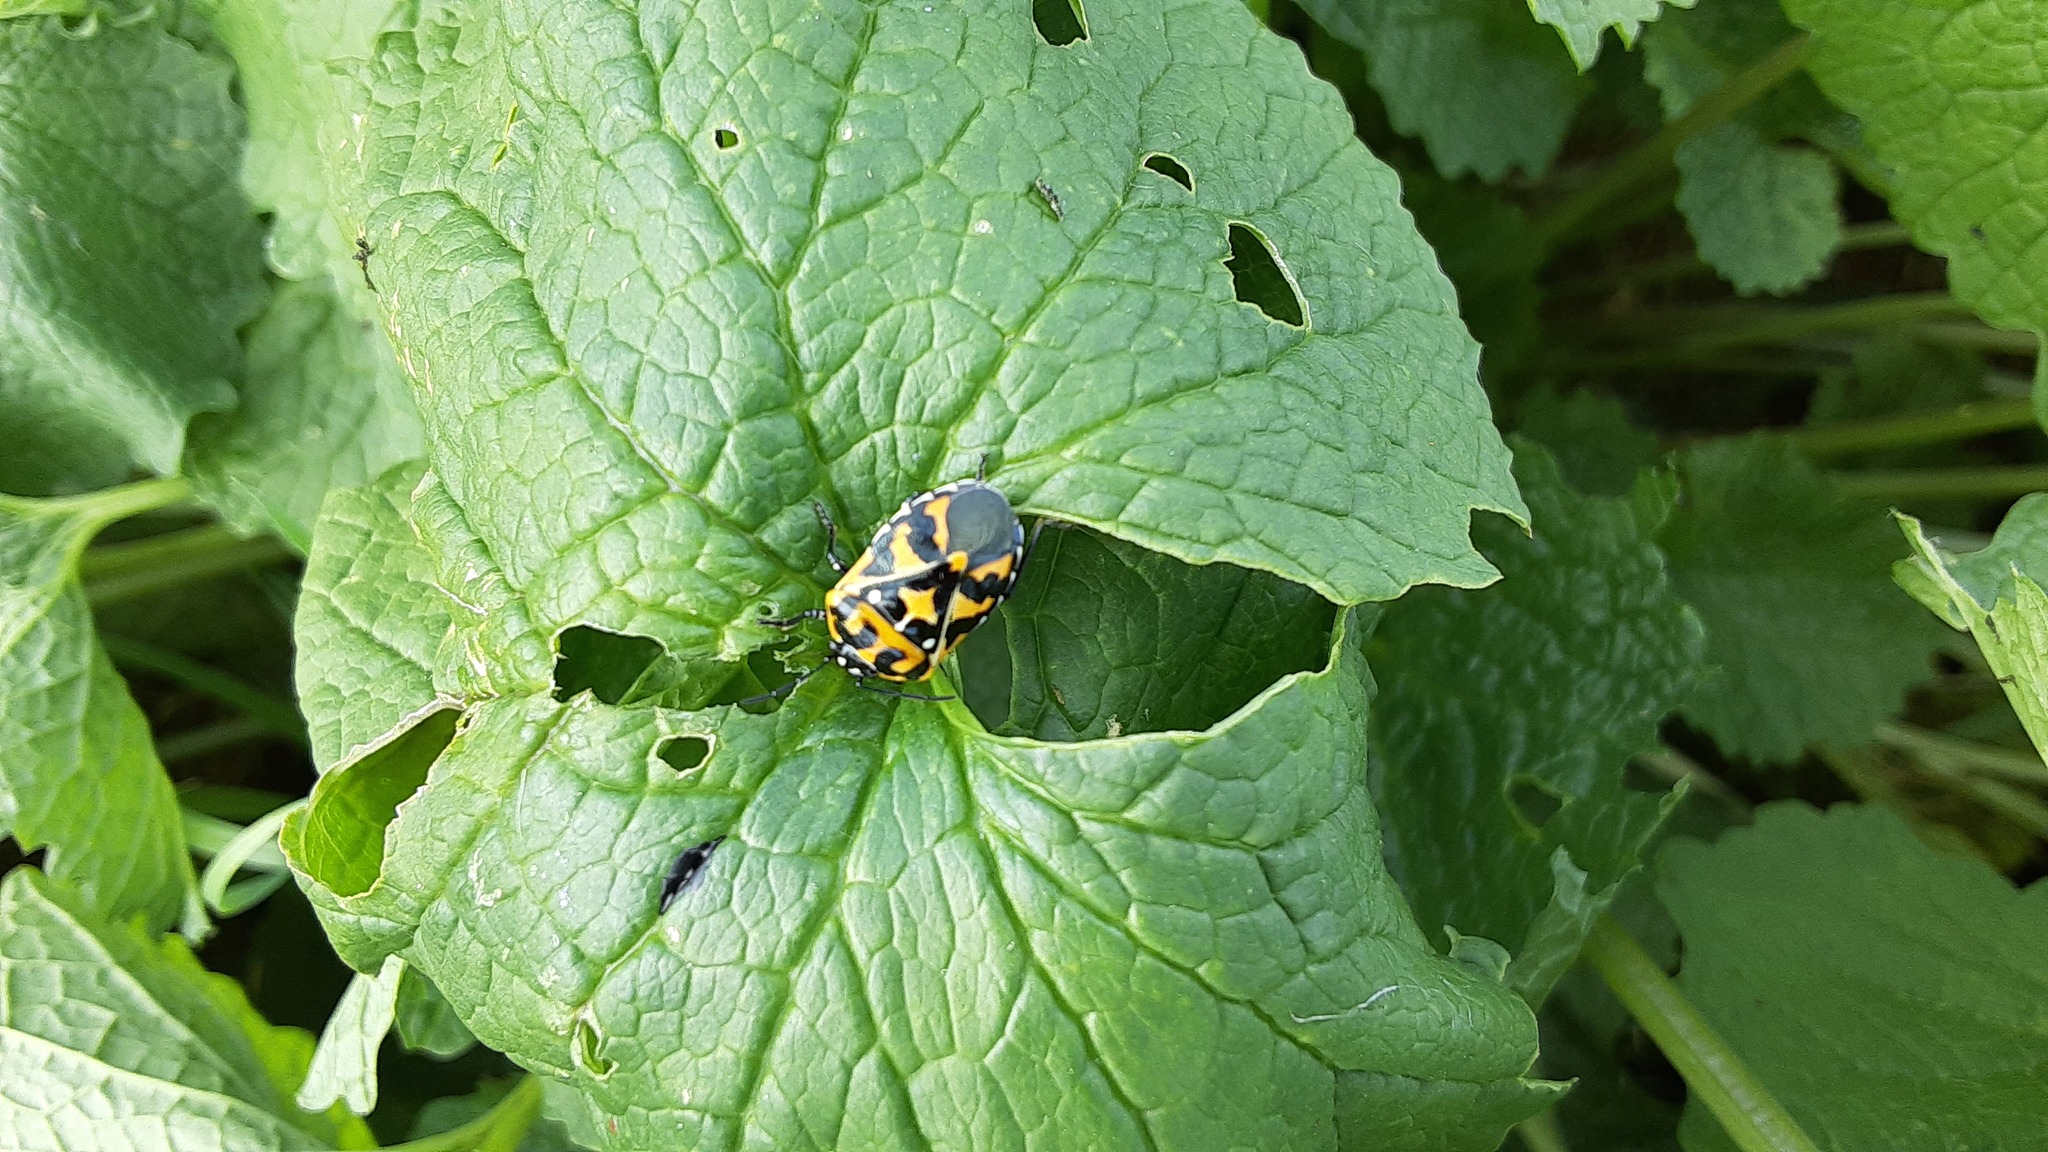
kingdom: Animalia
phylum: Arthropoda
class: Insecta
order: Hemiptera
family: Pentatomidae
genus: Murgantia
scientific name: Murgantia histrionica
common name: Harlequin bug
